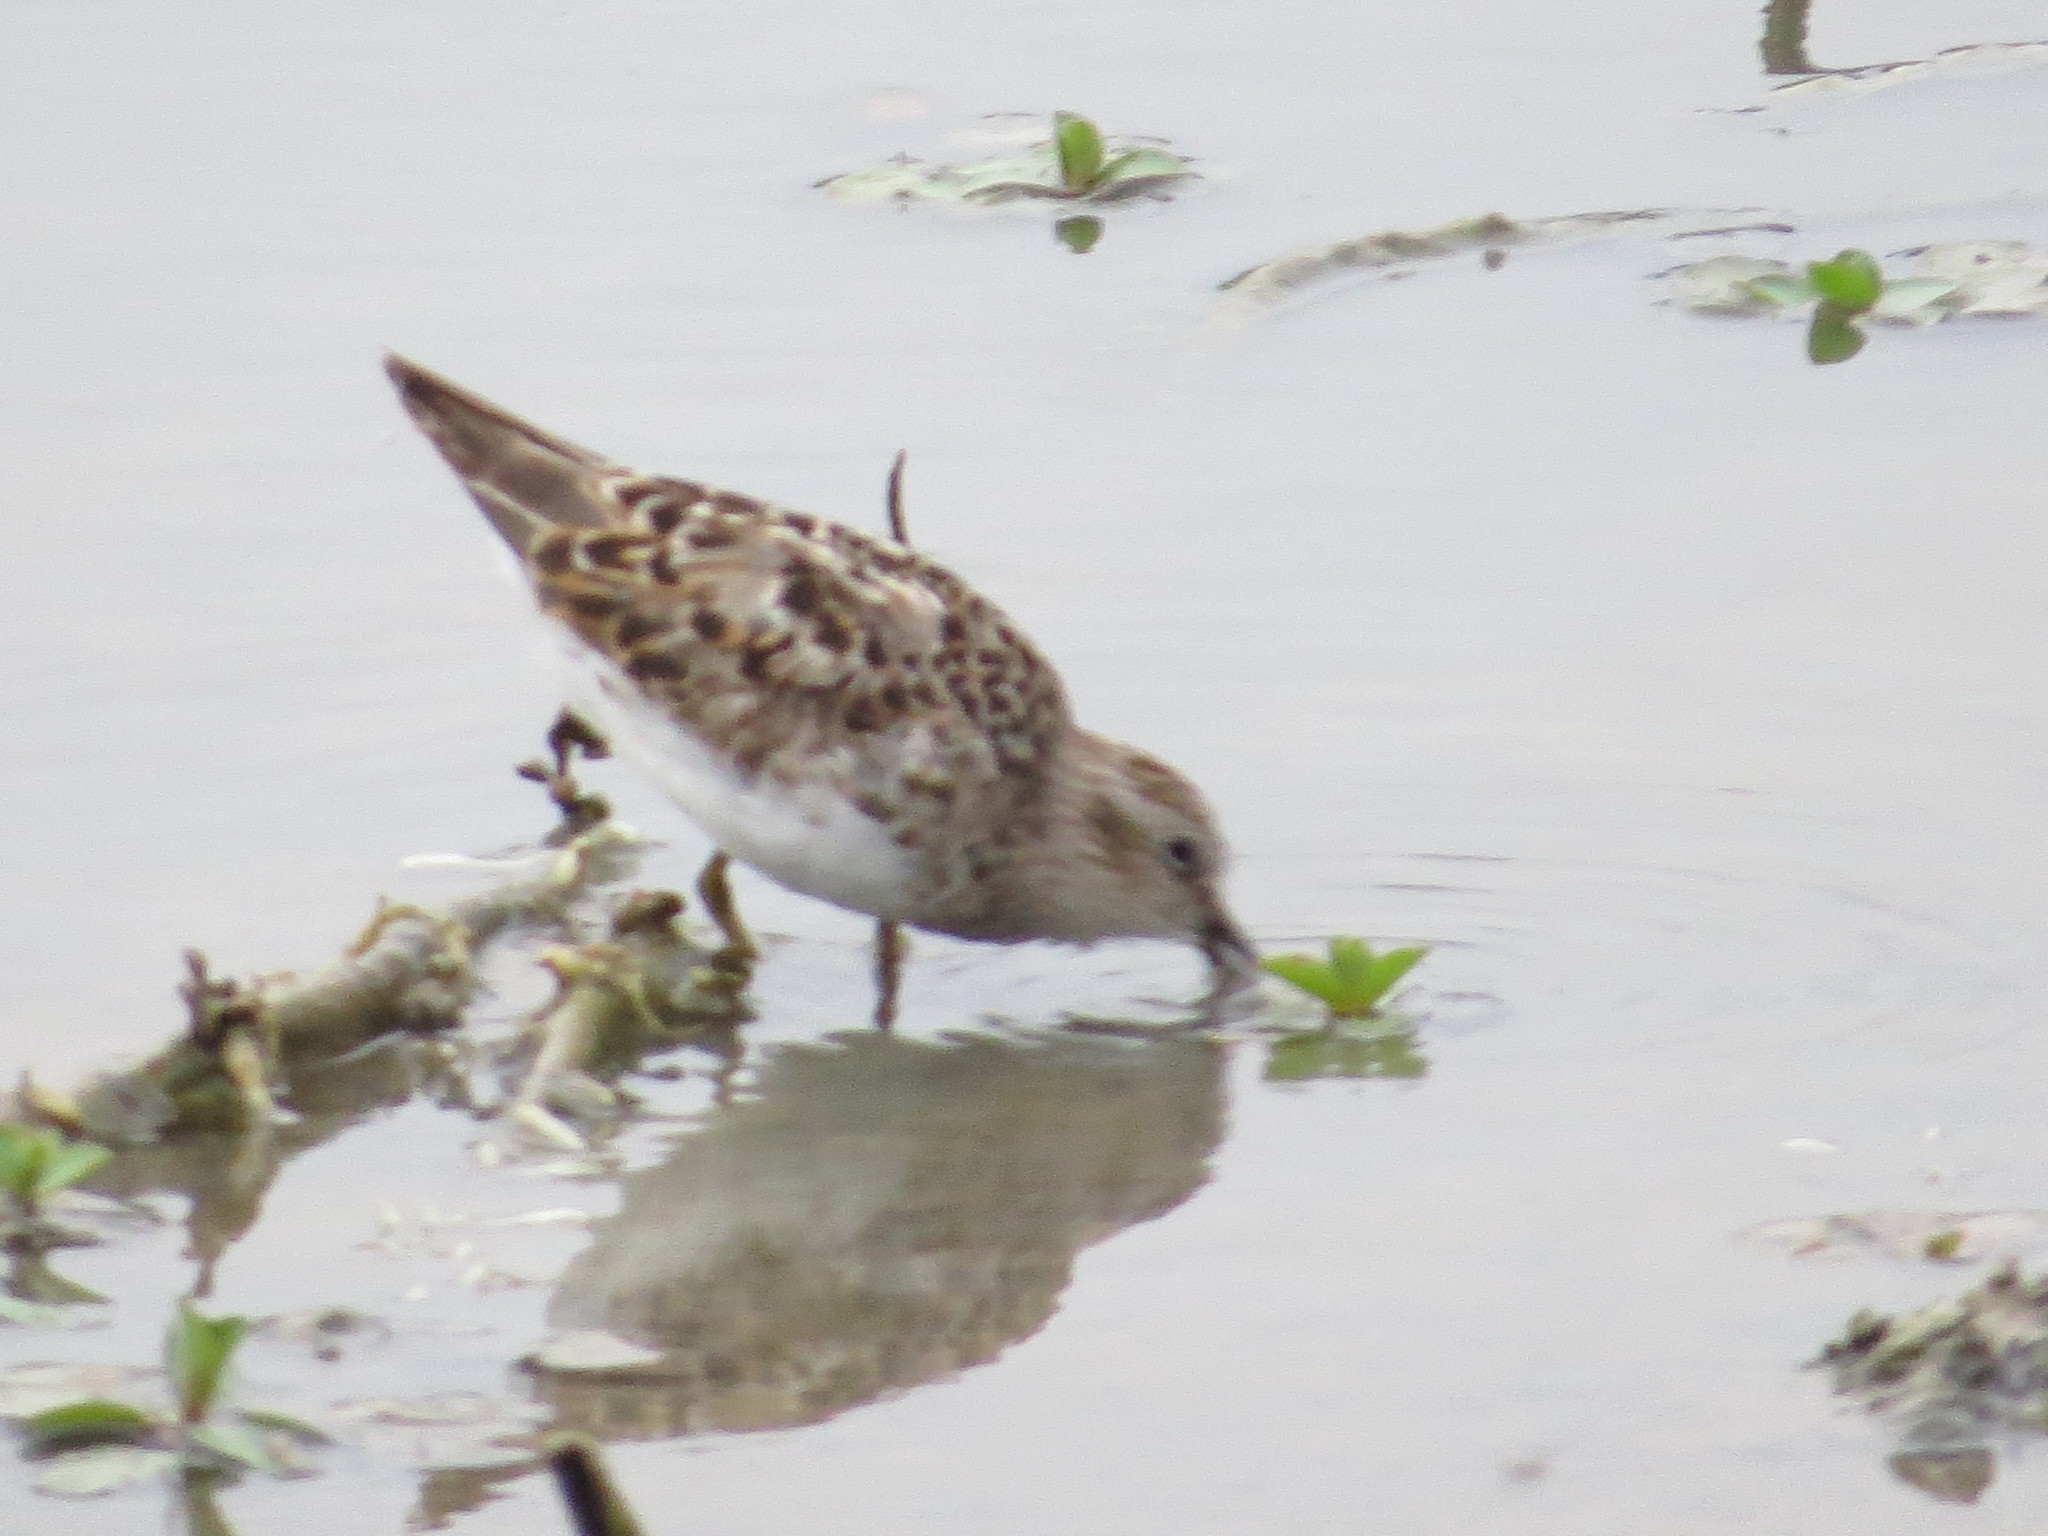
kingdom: Animalia
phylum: Chordata
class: Aves
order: Charadriiformes
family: Scolopacidae
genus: Calidris
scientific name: Calidris minutilla
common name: Least sandpiper
